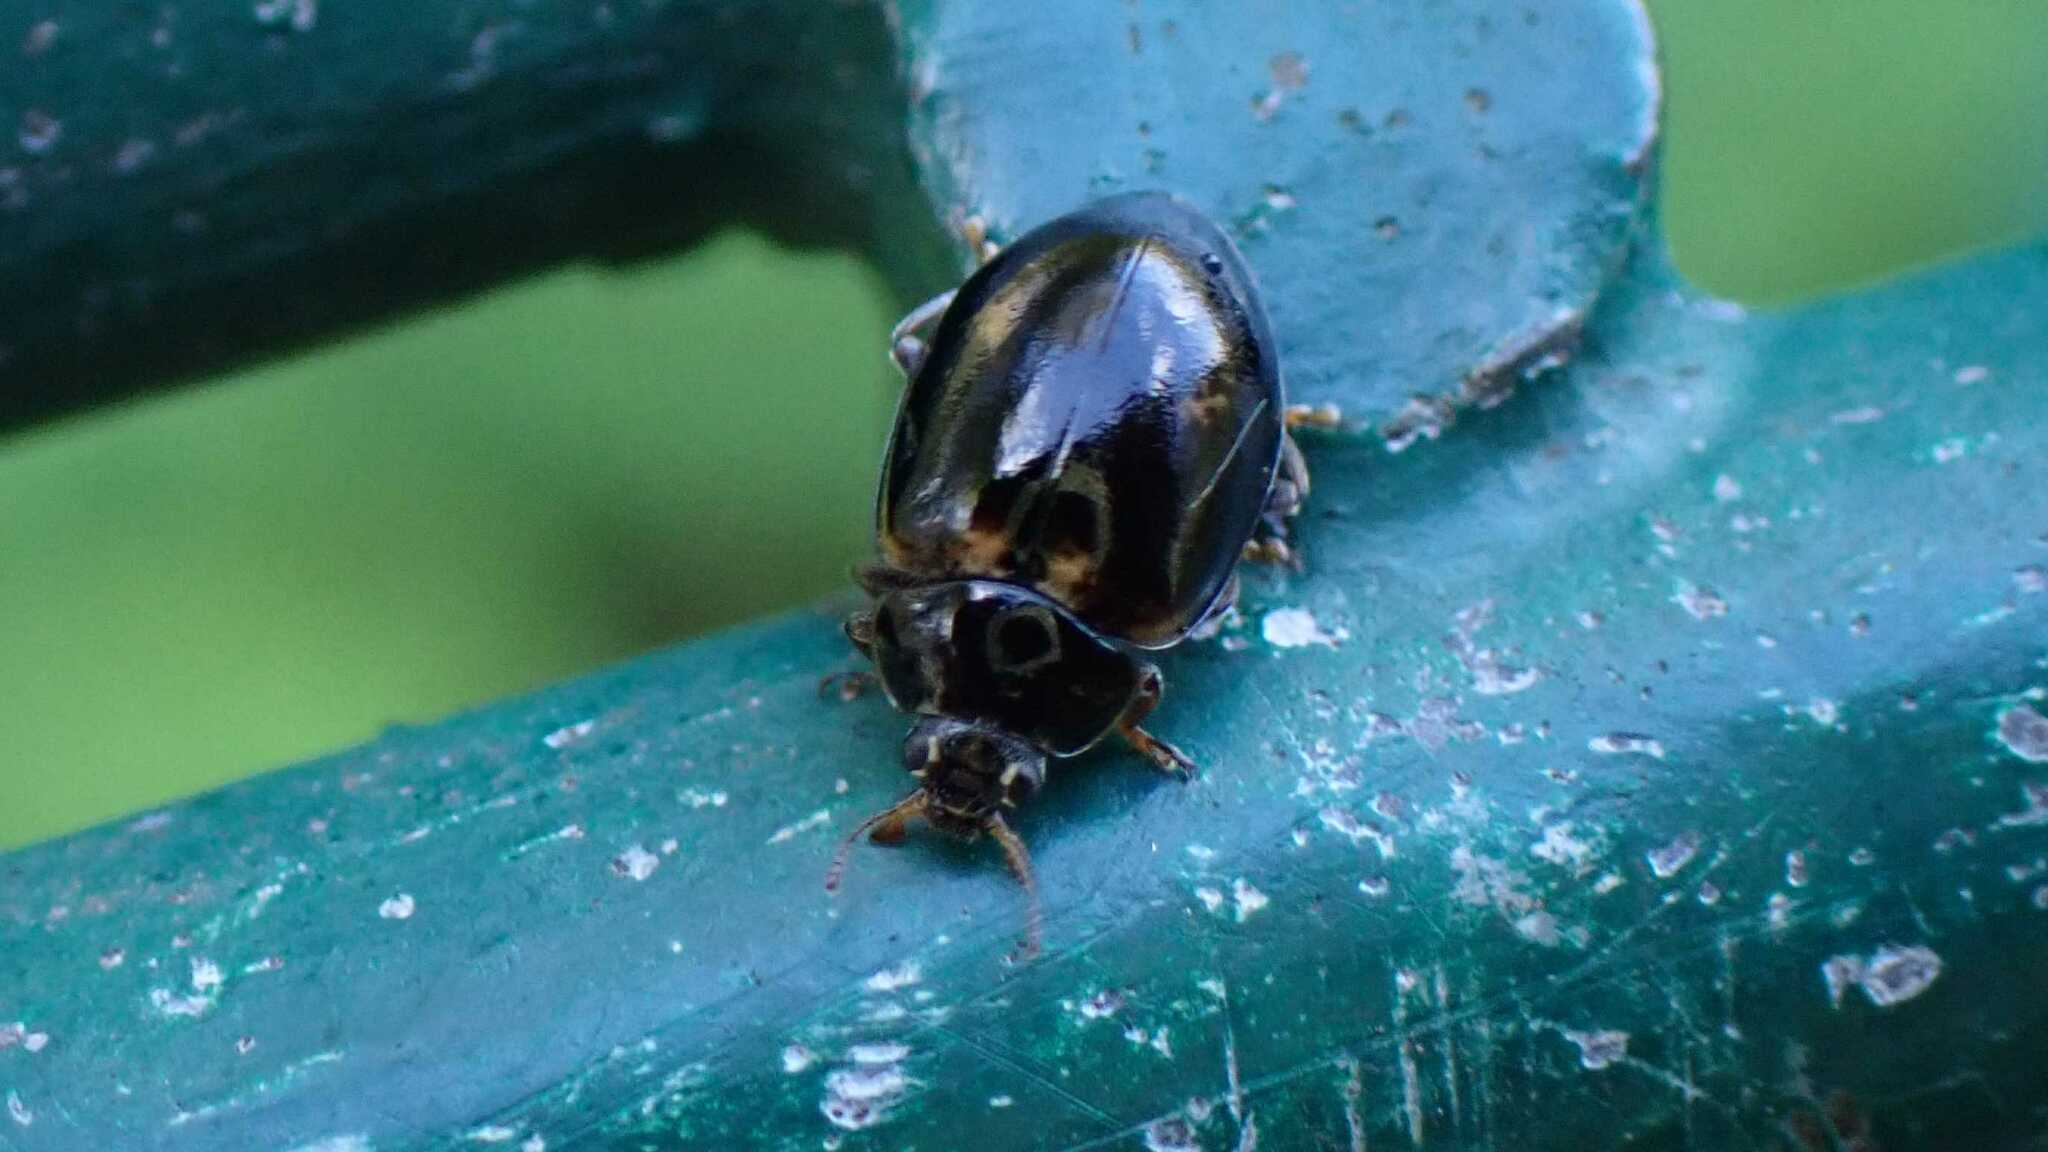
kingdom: Animalia
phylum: Arthropoda
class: Insecta
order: Coleoptera
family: Coccinellidae
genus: Aphidecta
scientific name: Aphidecta obliterata
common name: Larch ladybird
